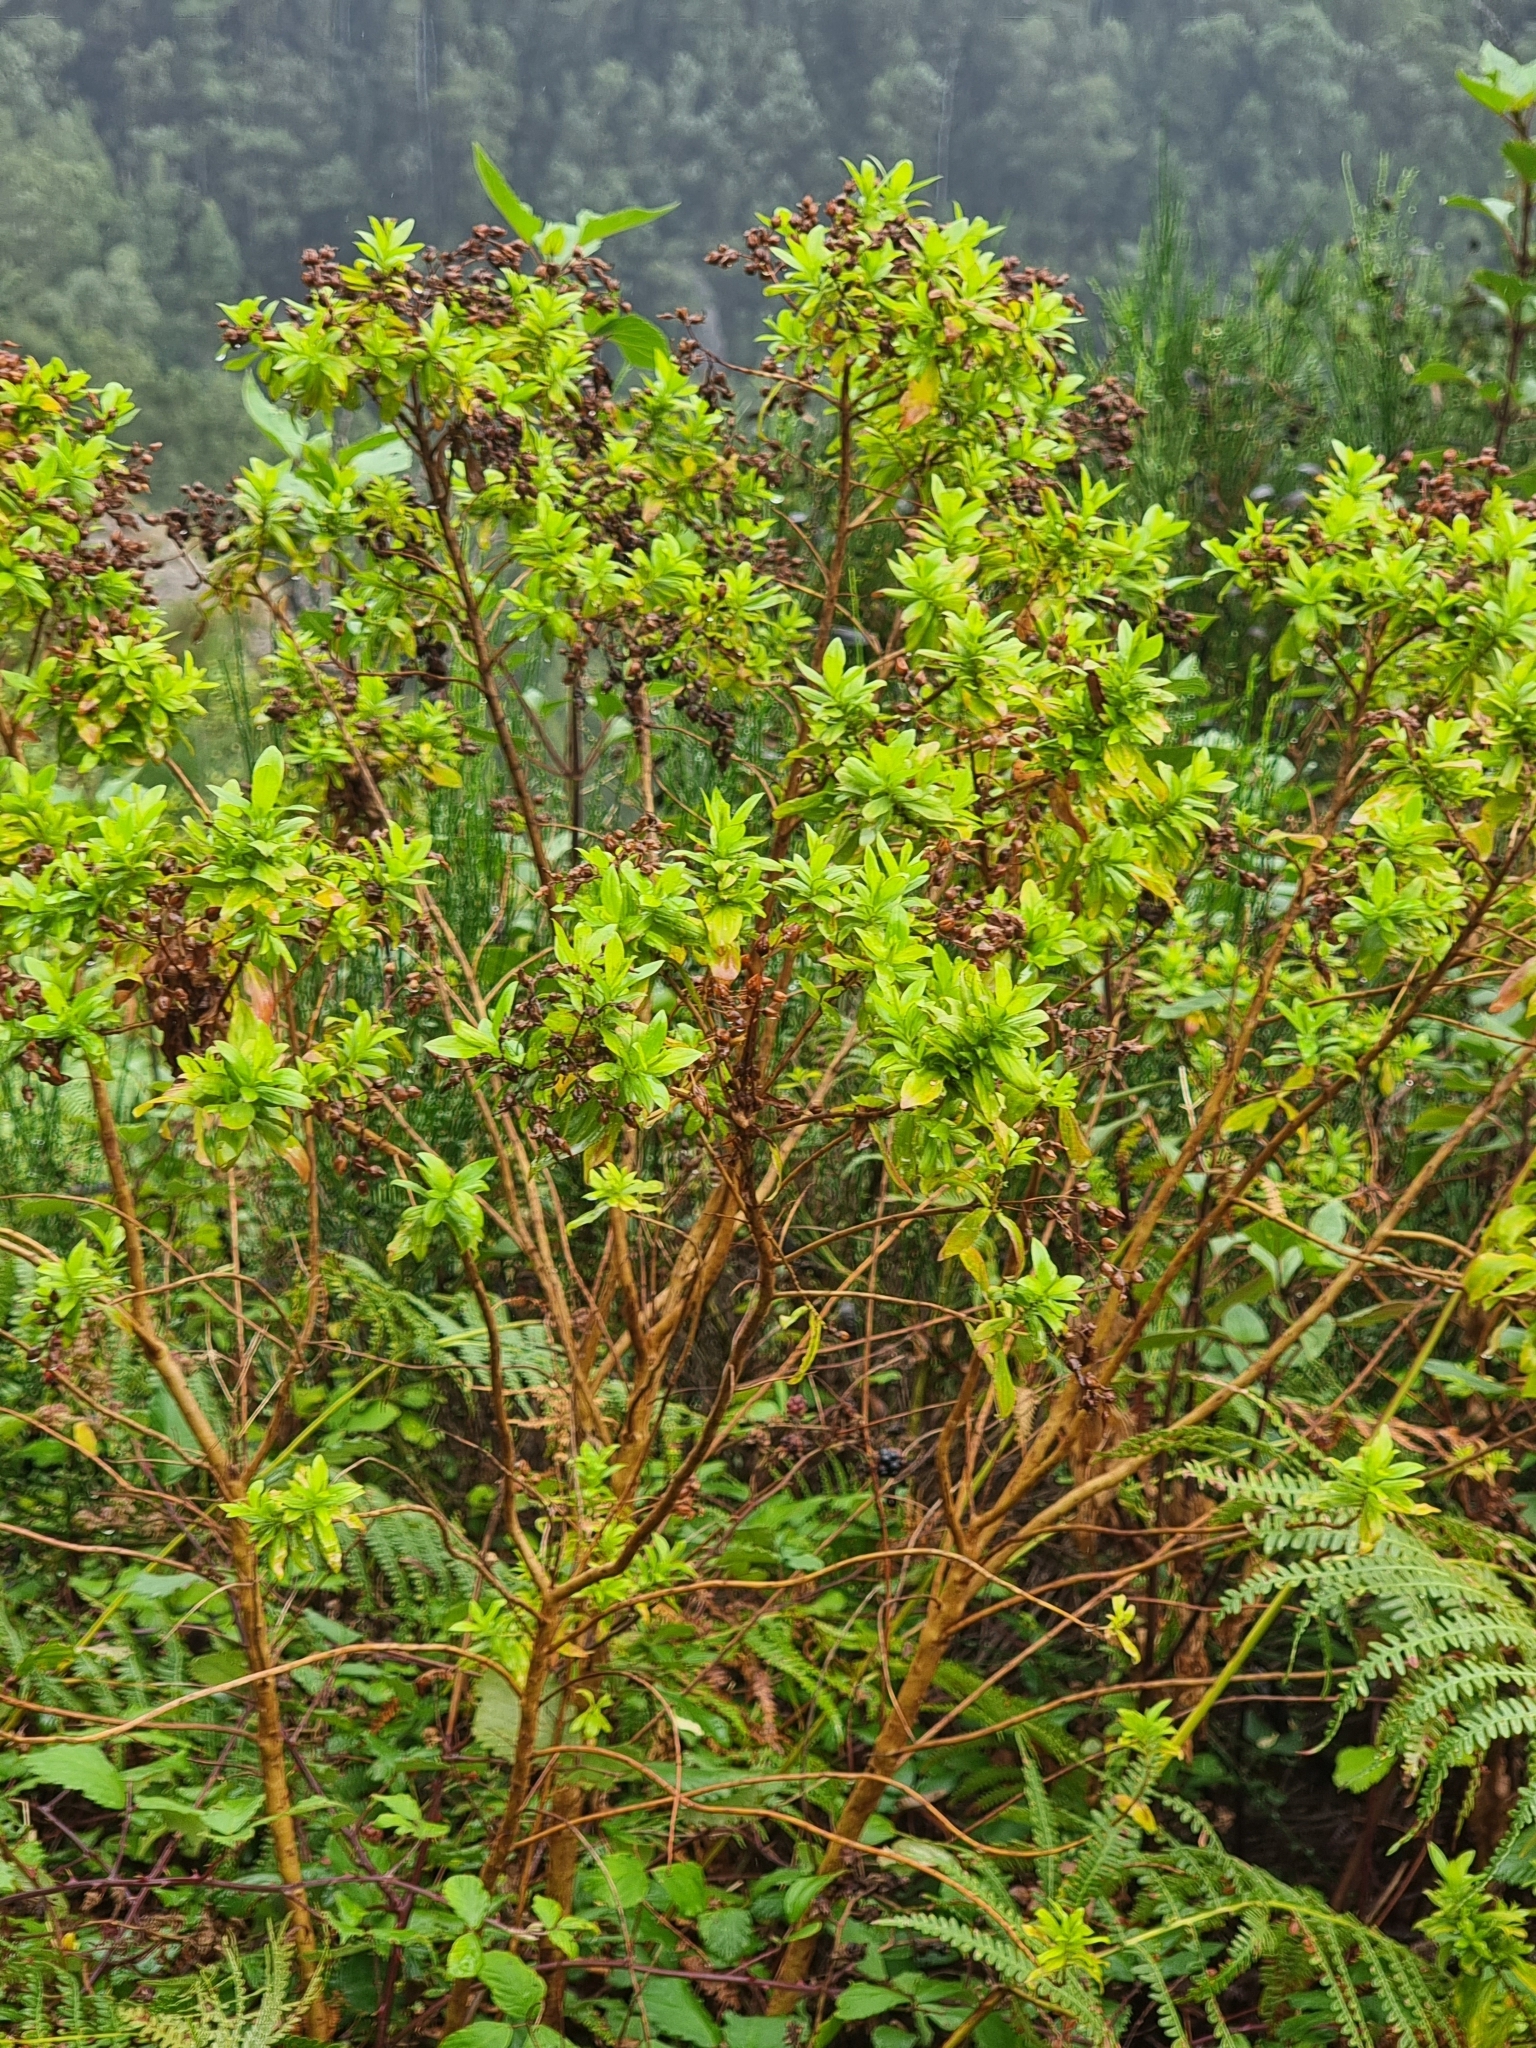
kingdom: Plantae
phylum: Tracheophyta
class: Magnoliopsida
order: Malpighiales
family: Hypericaceae
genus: Hypericum
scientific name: Hypericum glandulosum
